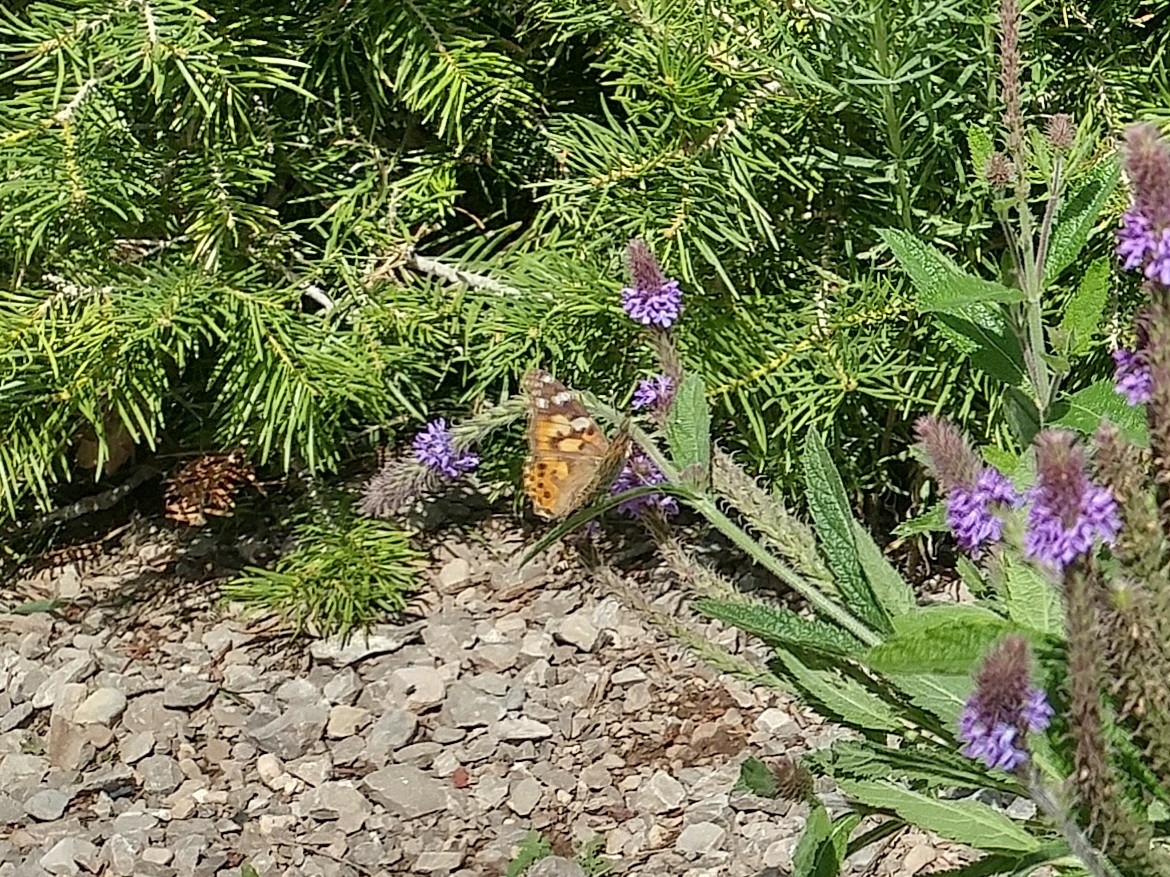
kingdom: Animalia
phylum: Arthropoda
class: Insecta
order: Lepidoptera
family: Nymphalidae
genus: Vanessa
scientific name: Vanessa cardui
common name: Painted lady
